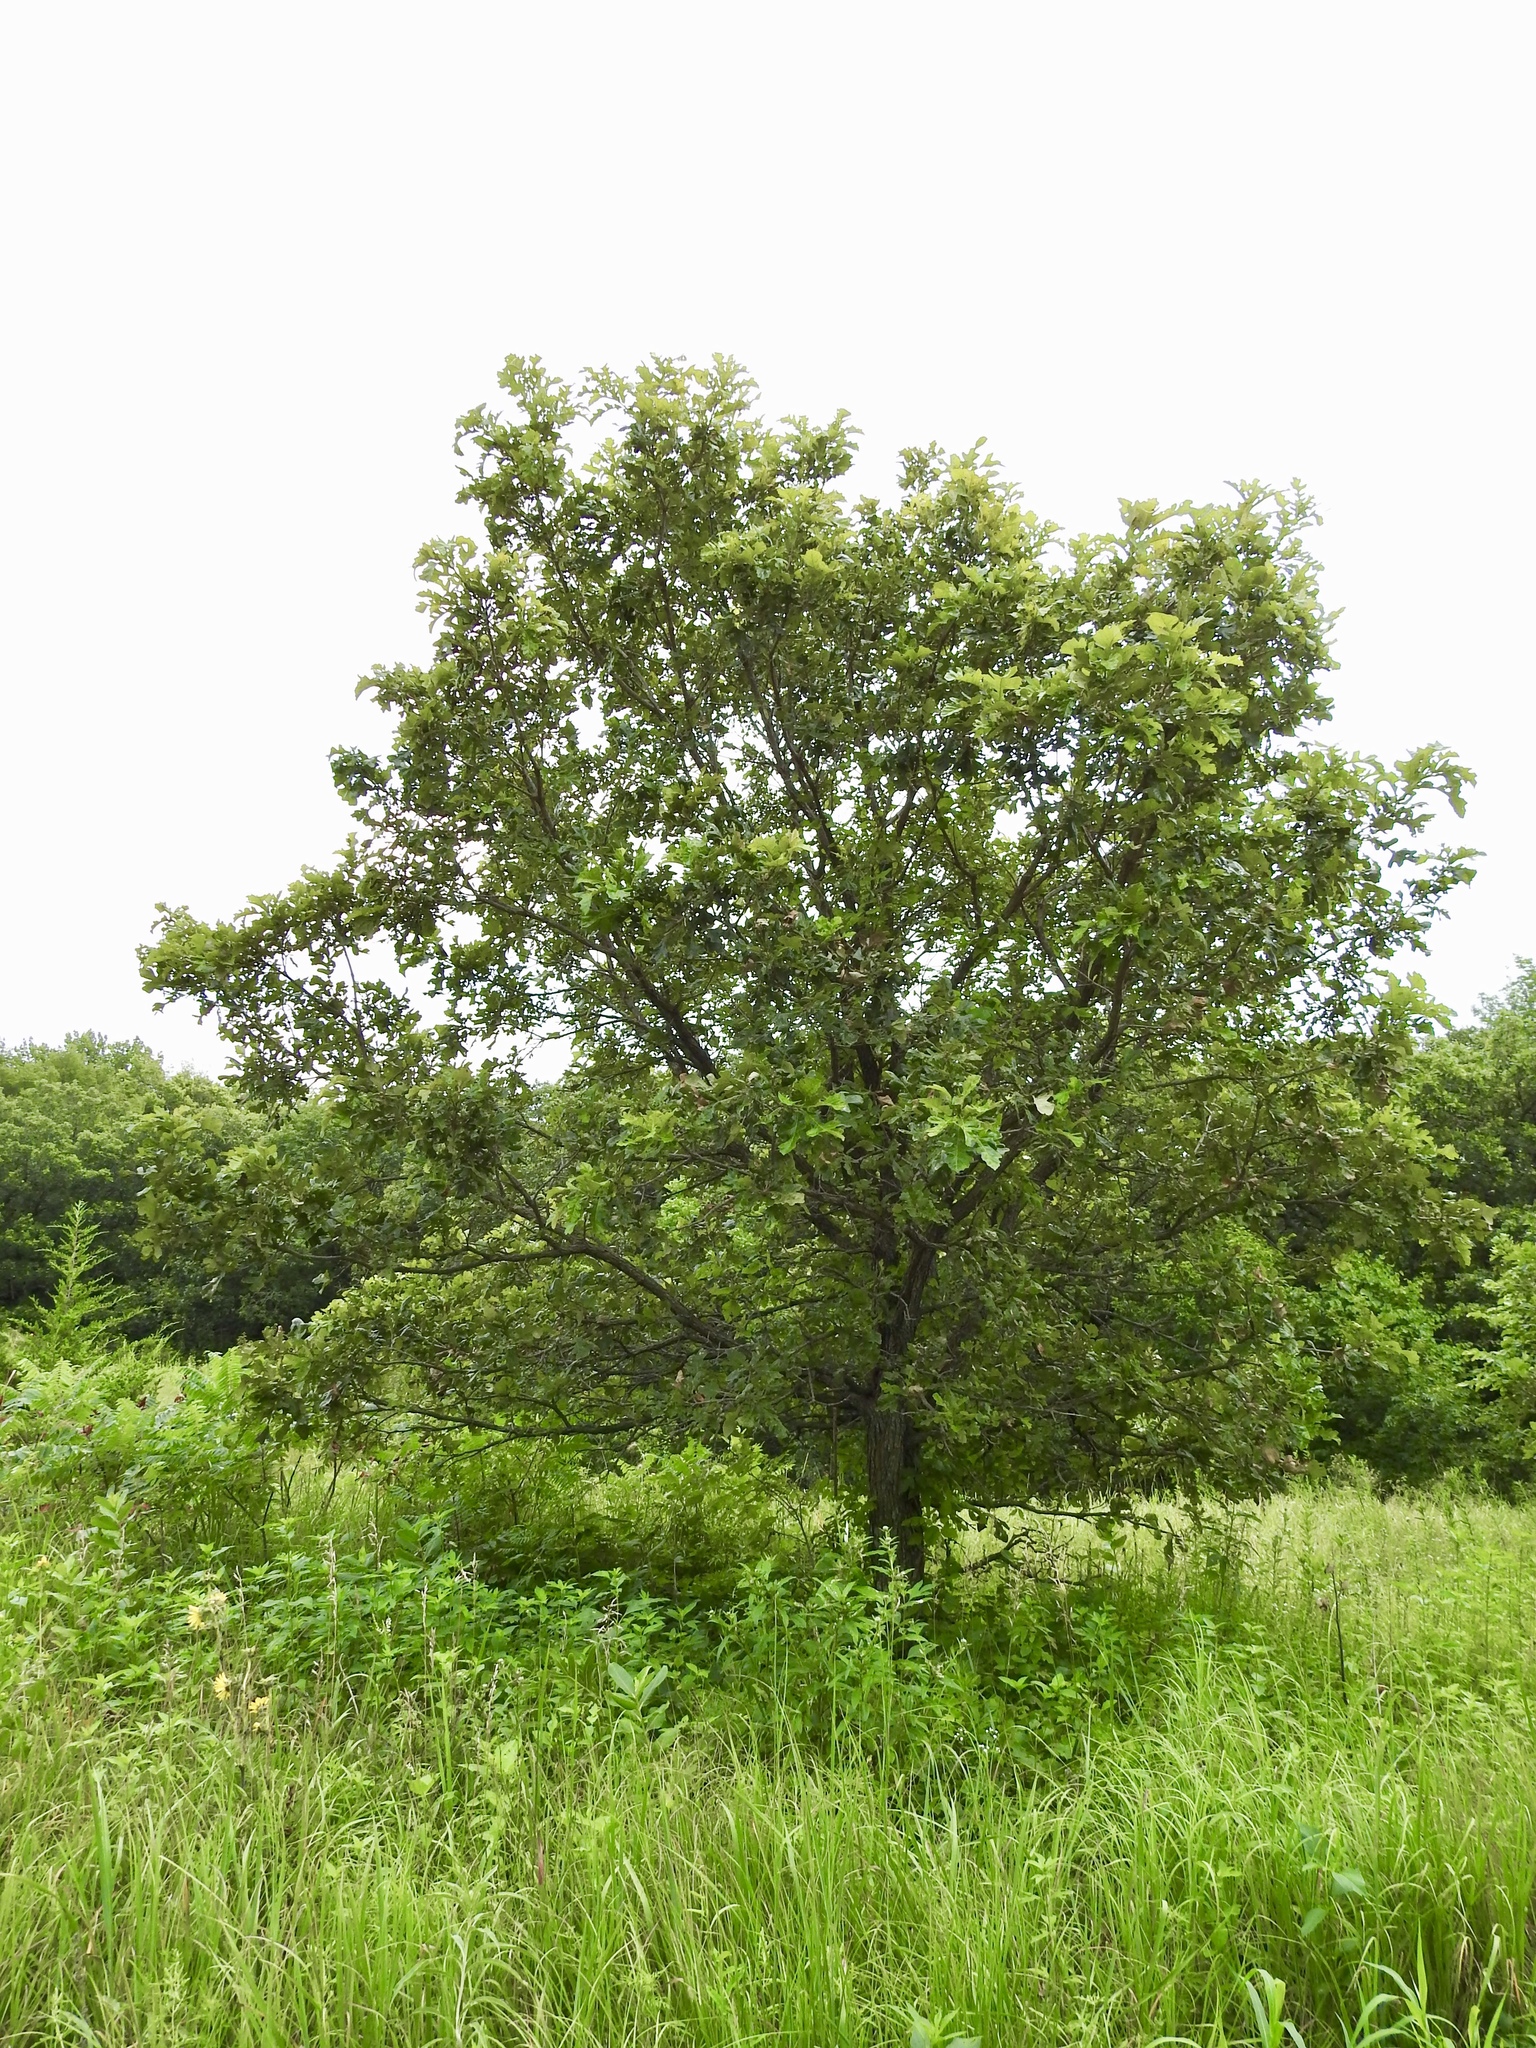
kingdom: Plantae
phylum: Tracheophyta
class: Magnoliopsida
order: Fagales
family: Fagaceae
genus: Quercus
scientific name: Quercus macrocarpa
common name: Bur oak
